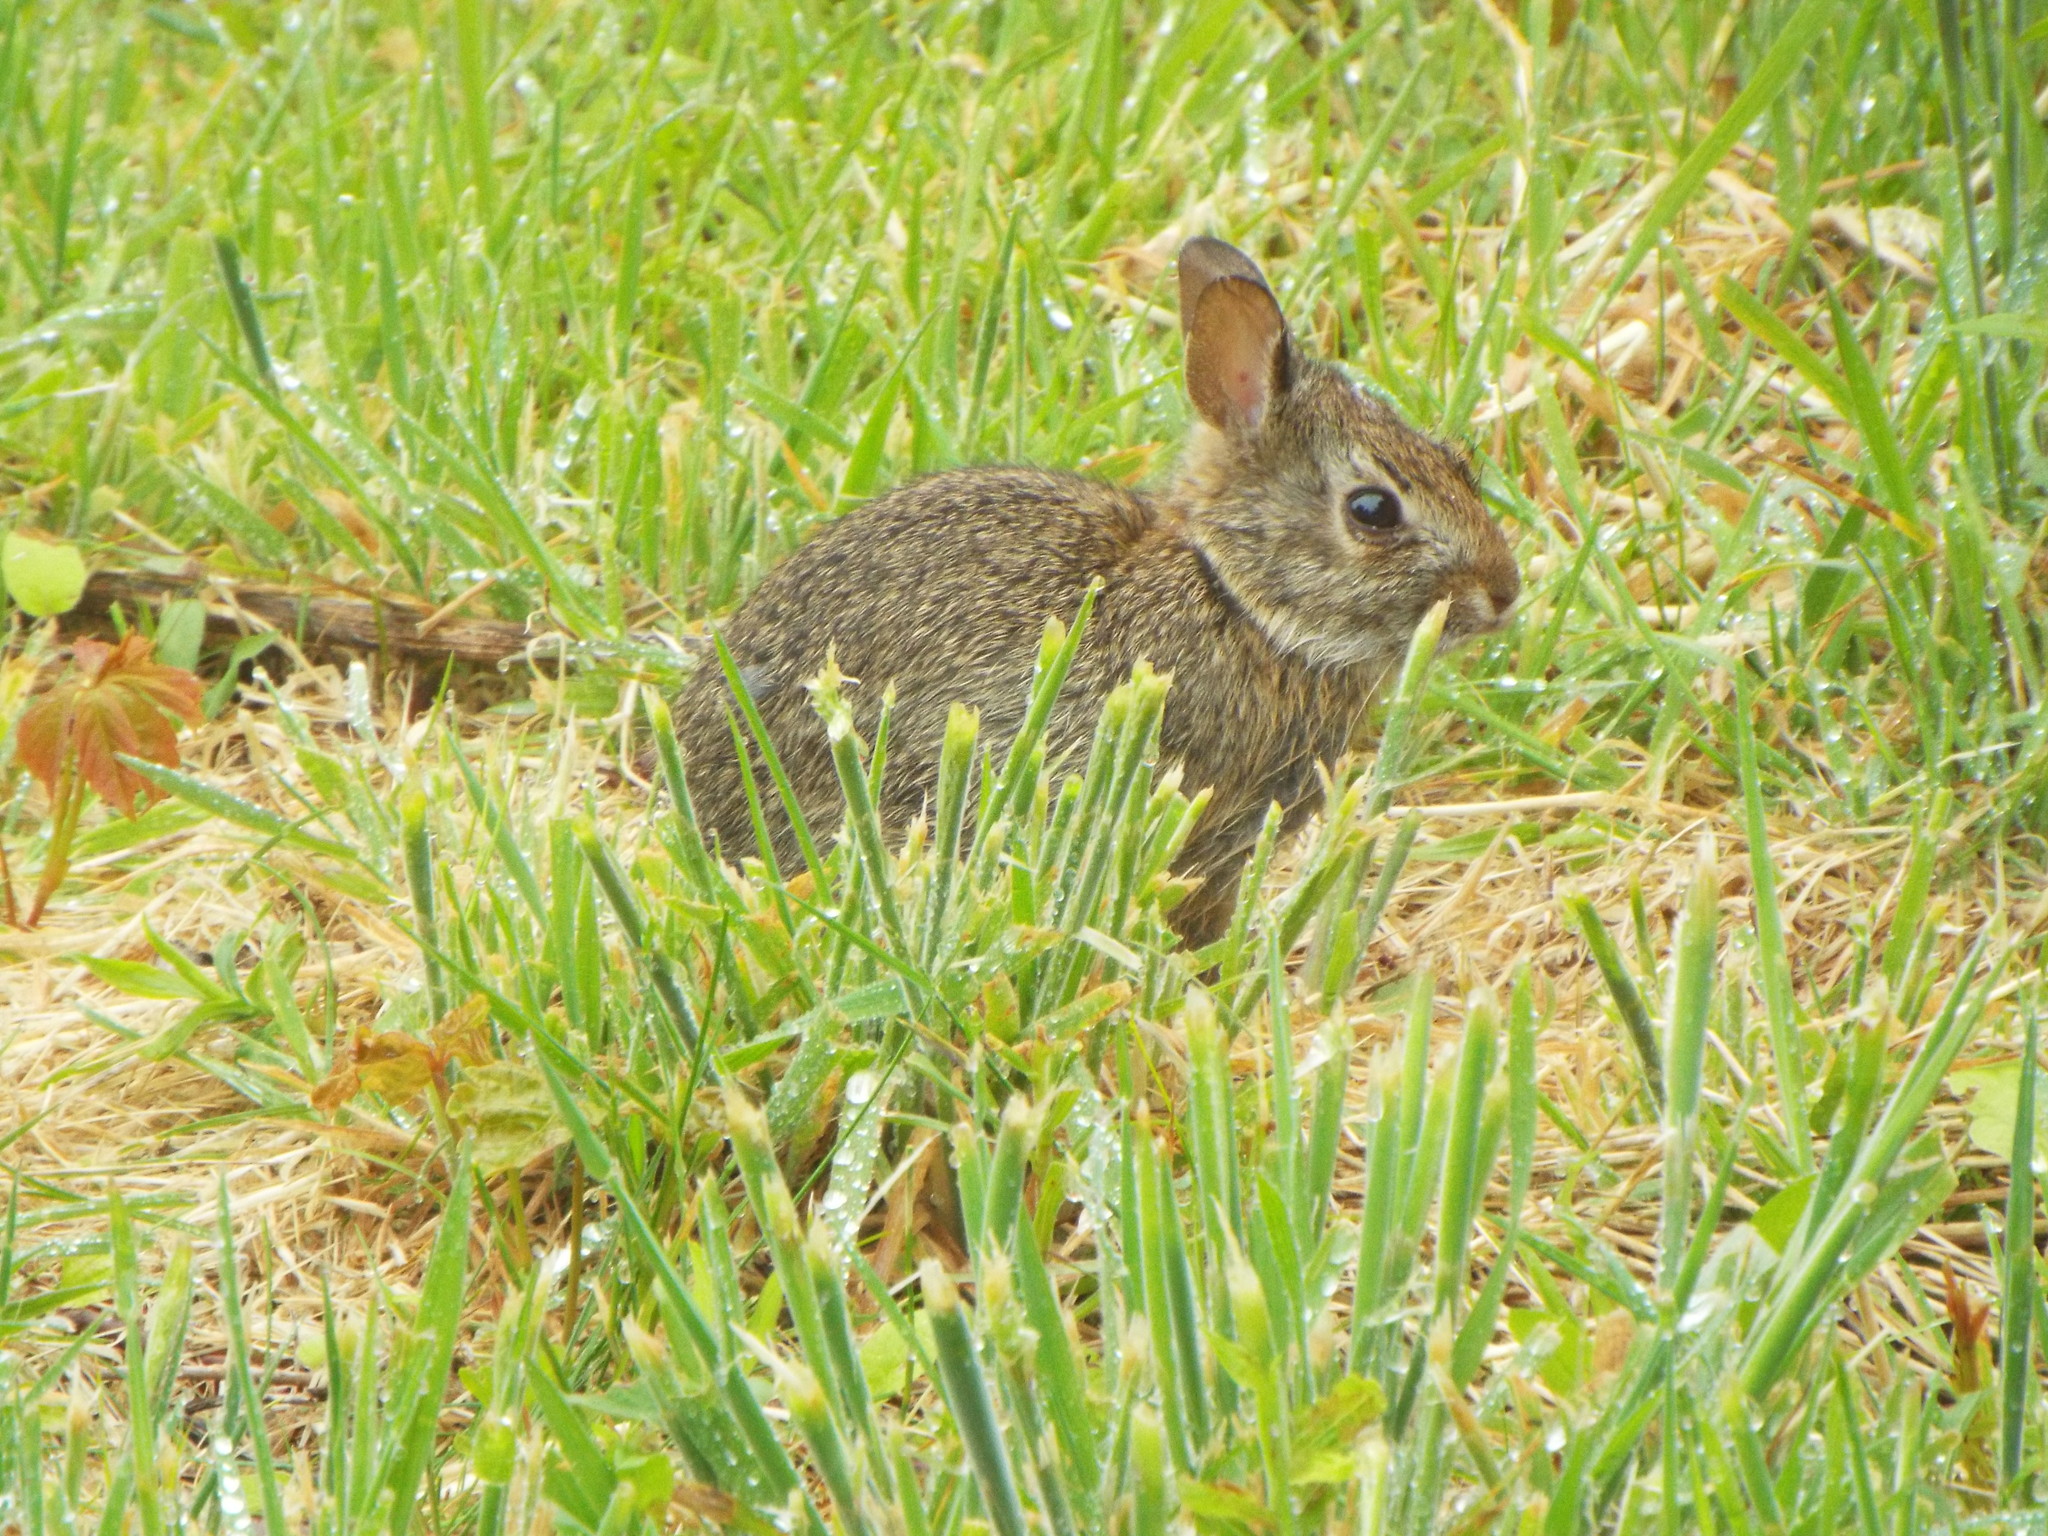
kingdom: Animalia
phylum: Chordata
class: Mammalia
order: Lagomorpha
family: Leporidae
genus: Sylvilagus
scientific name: Sylvilagus
